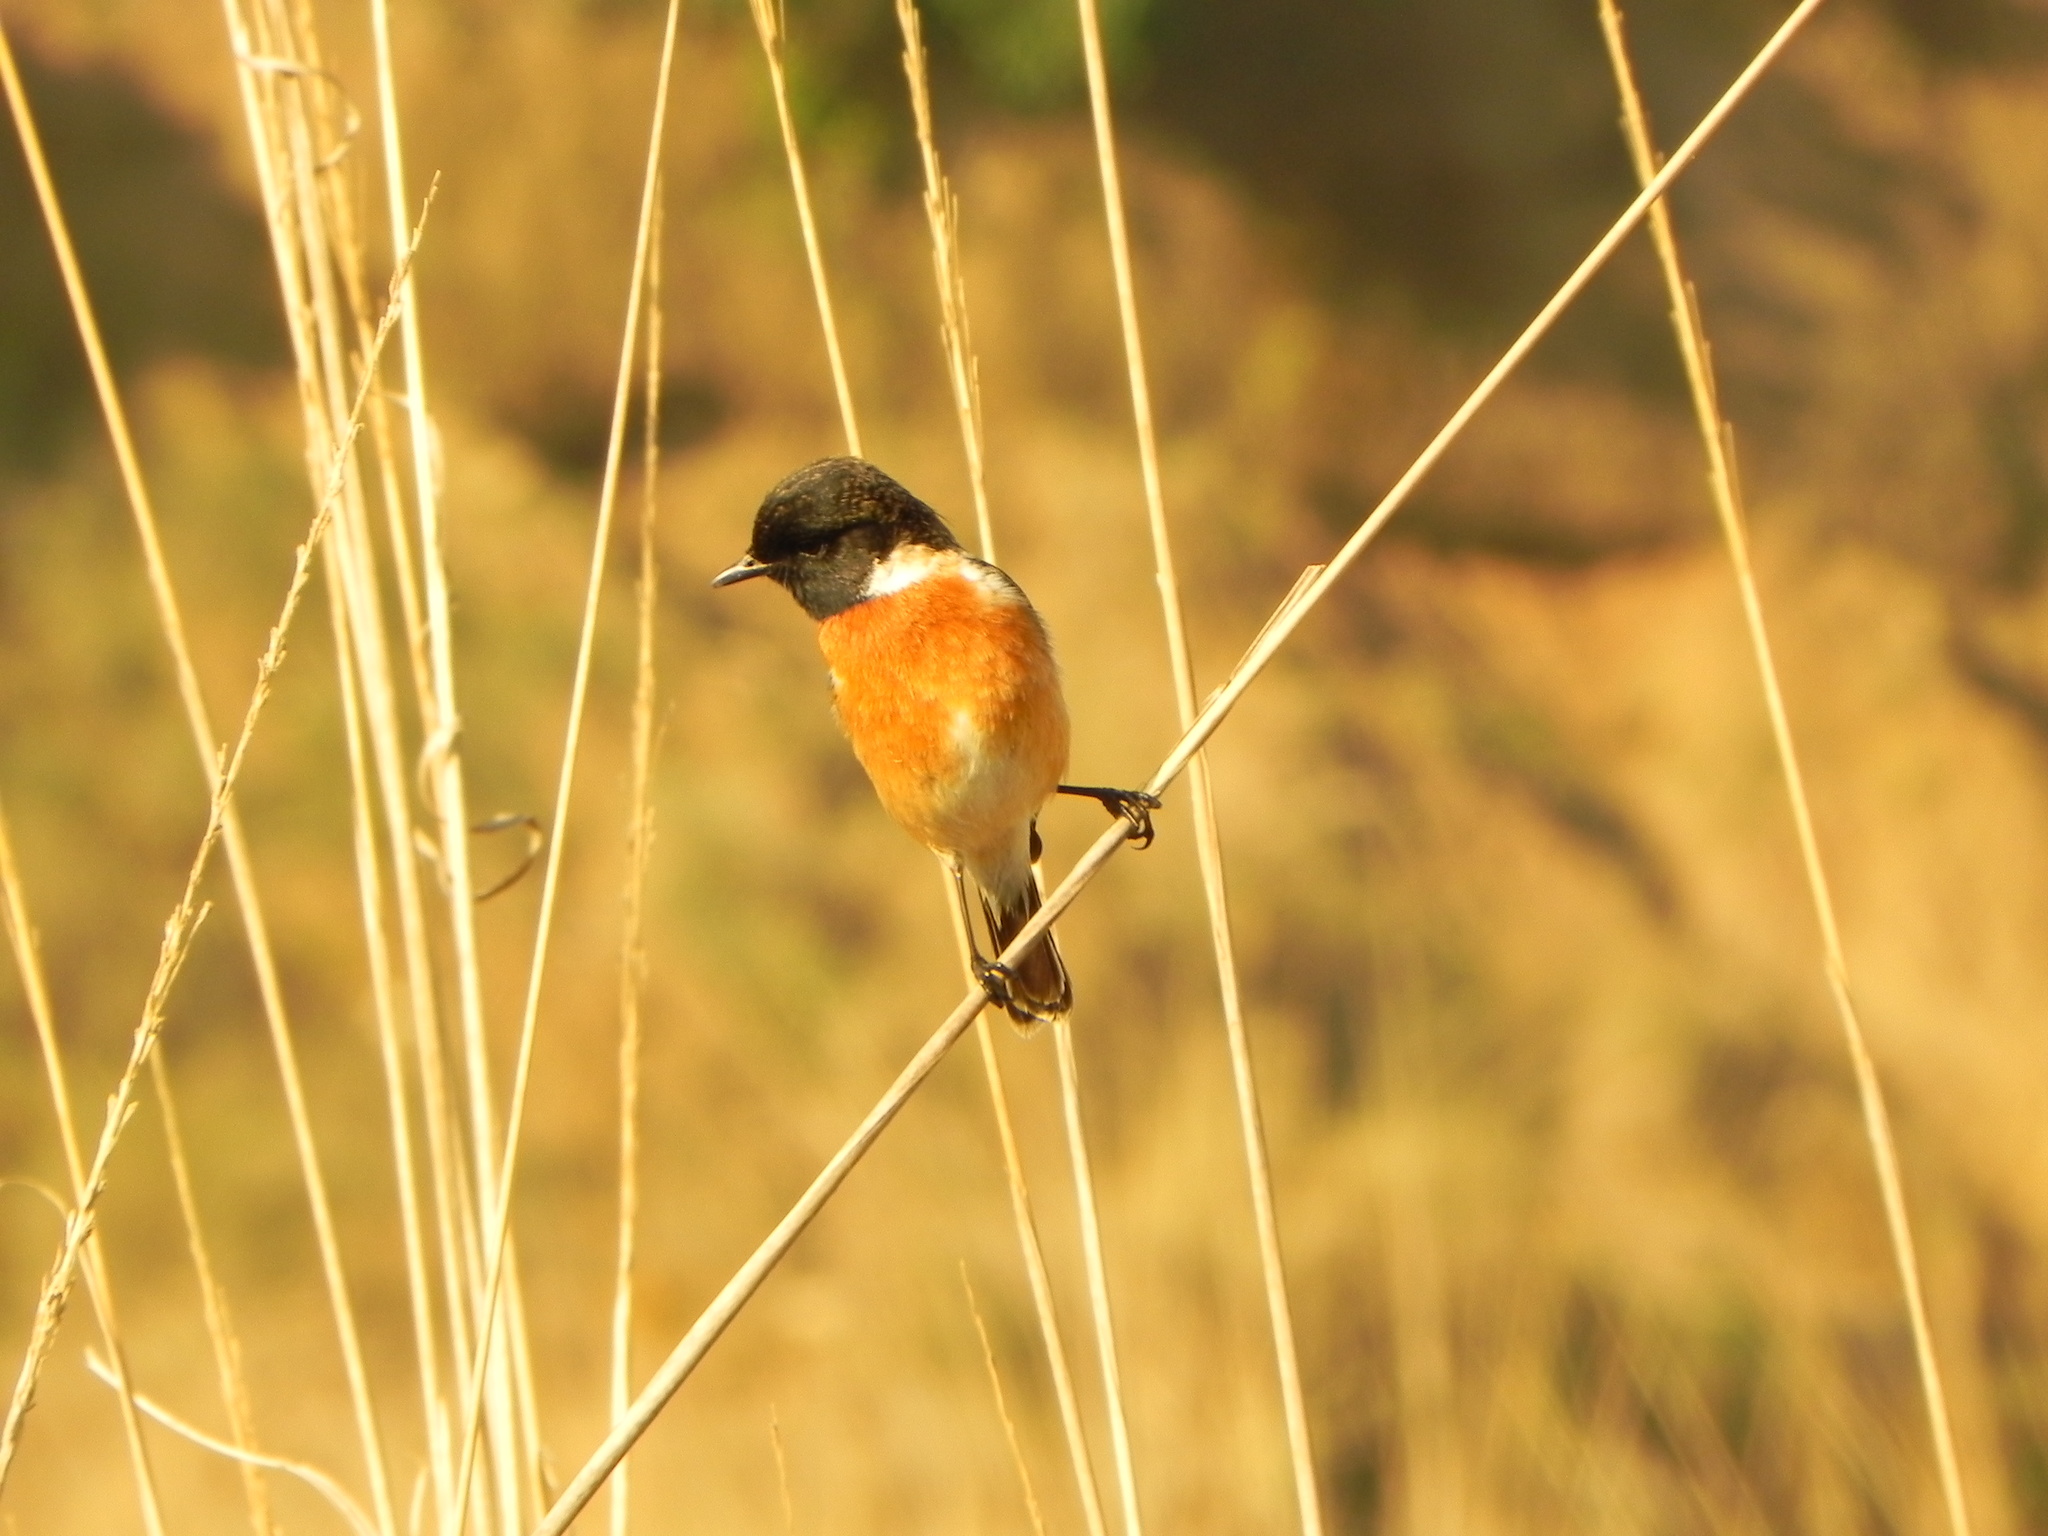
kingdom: Animalia
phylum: Chordata
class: Aves
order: Passeriformes
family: Muscicapidae
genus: Saxicola
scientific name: Saxicola maurus
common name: Siberian stonechat
